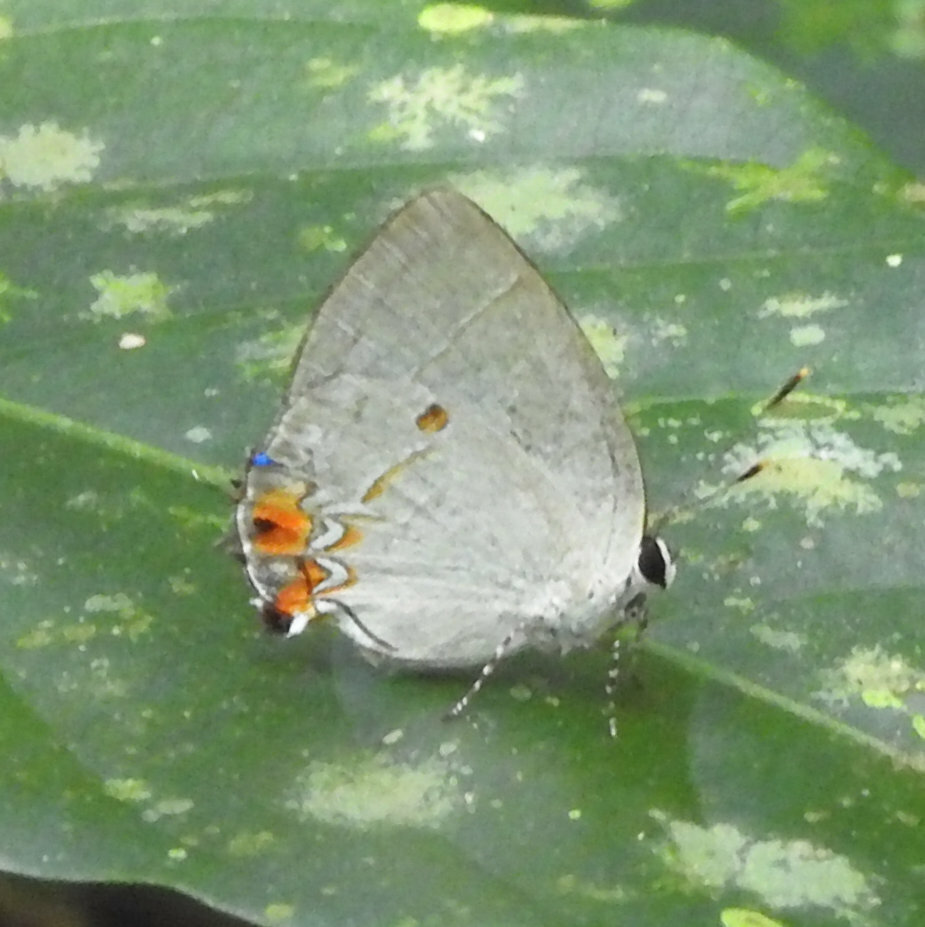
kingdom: Animalia
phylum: Arthropoda
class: Insecta
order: Lepidoptera
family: Lycaenidae
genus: Iaspis
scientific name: Iaspis andersoni
